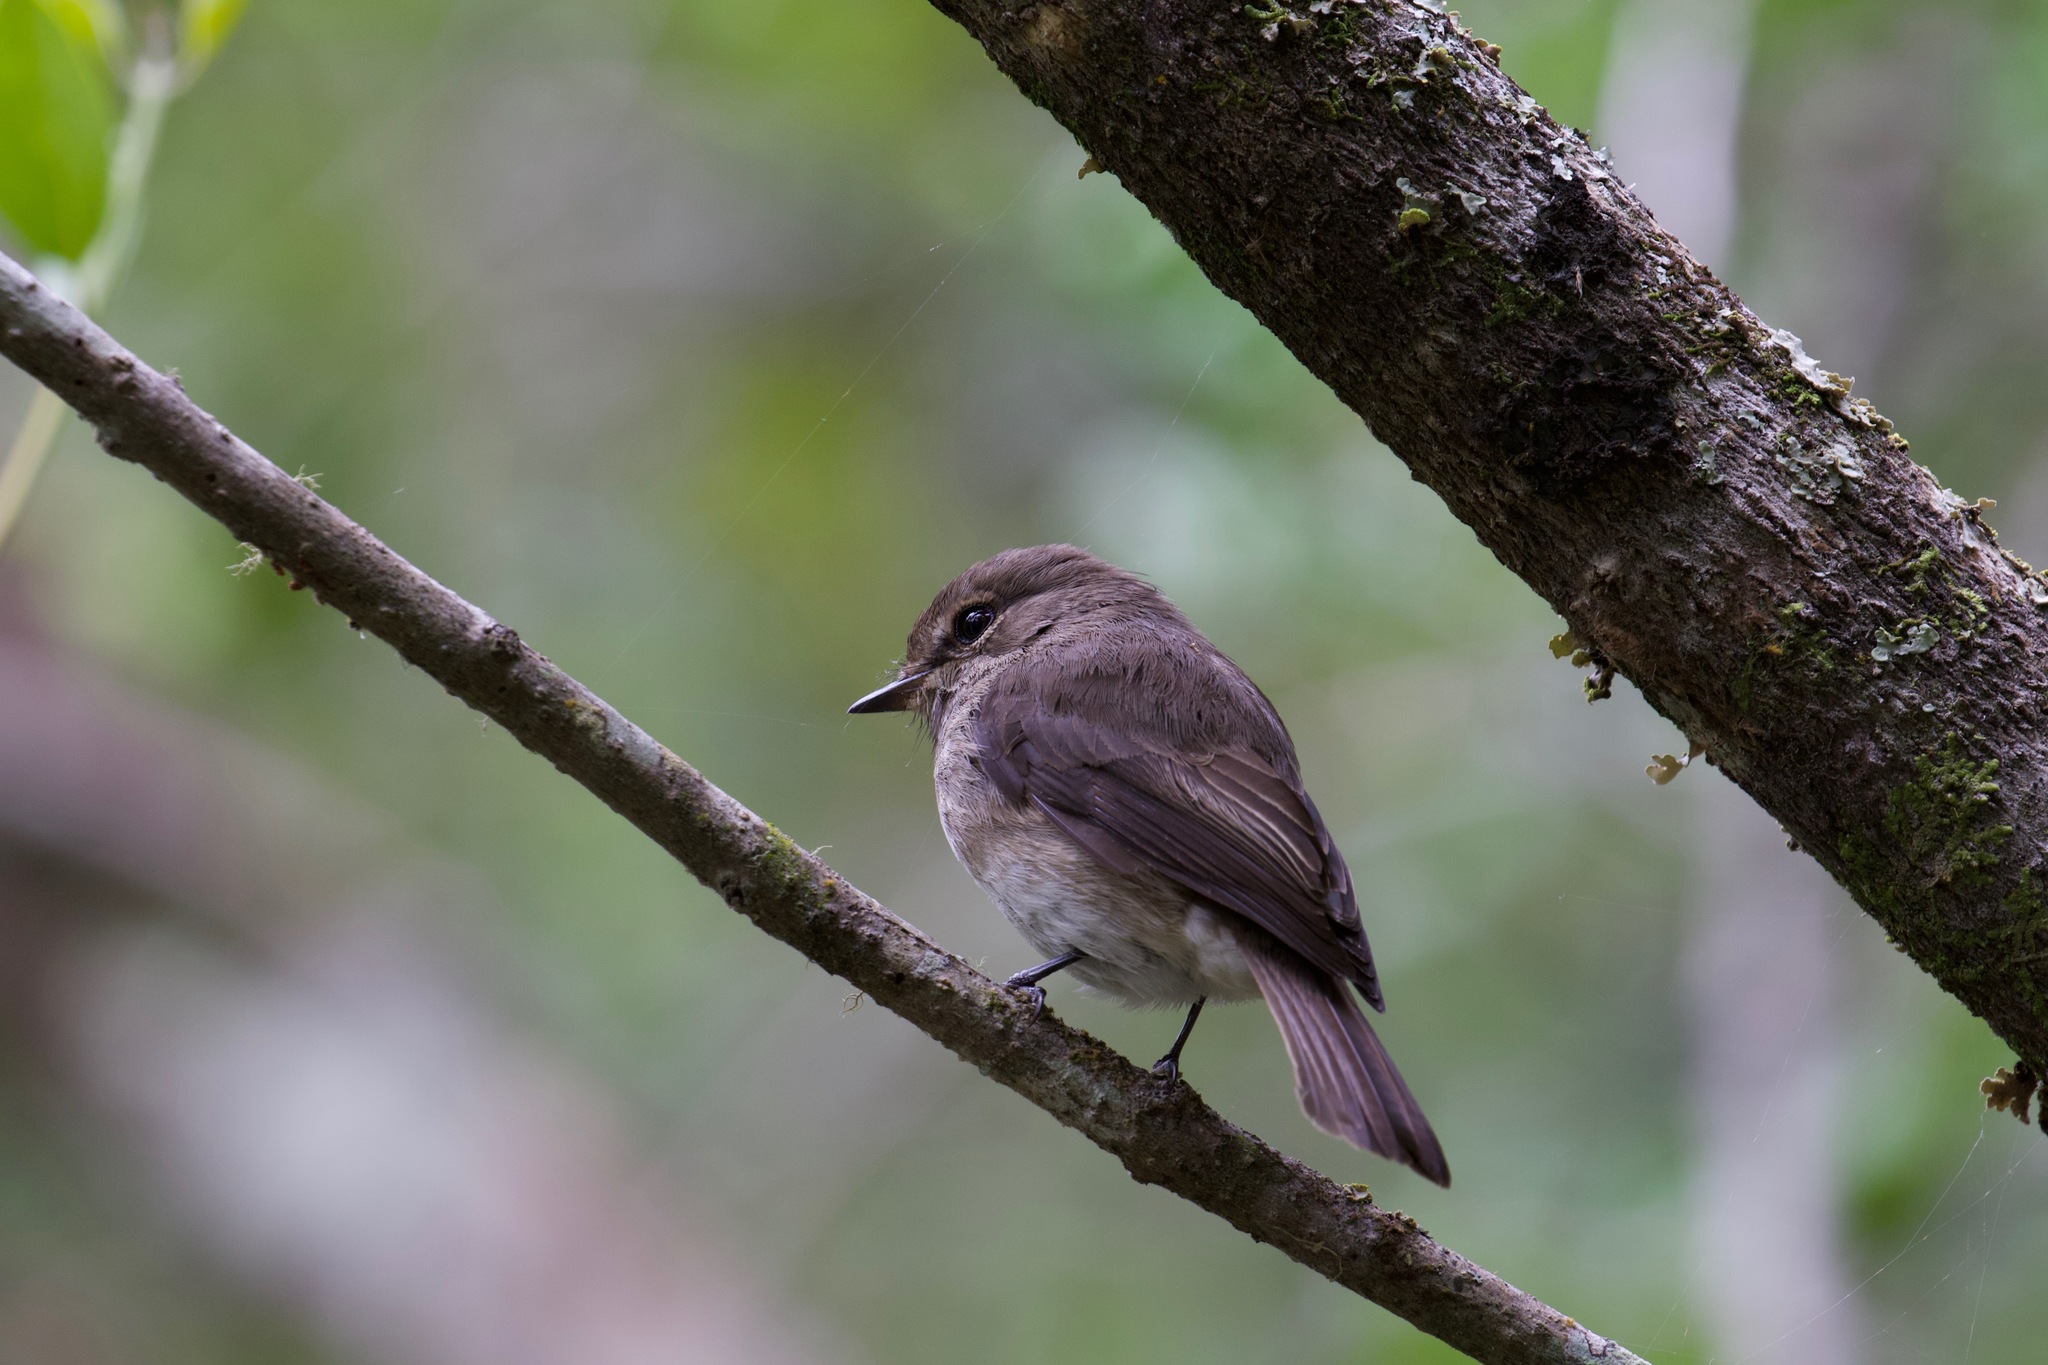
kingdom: Animalia
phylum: Chordata
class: Aves
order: Passeriformes
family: Muscicapidae
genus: Muscicapa
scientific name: Muscicapa adusta
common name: African dusky flycatcher
